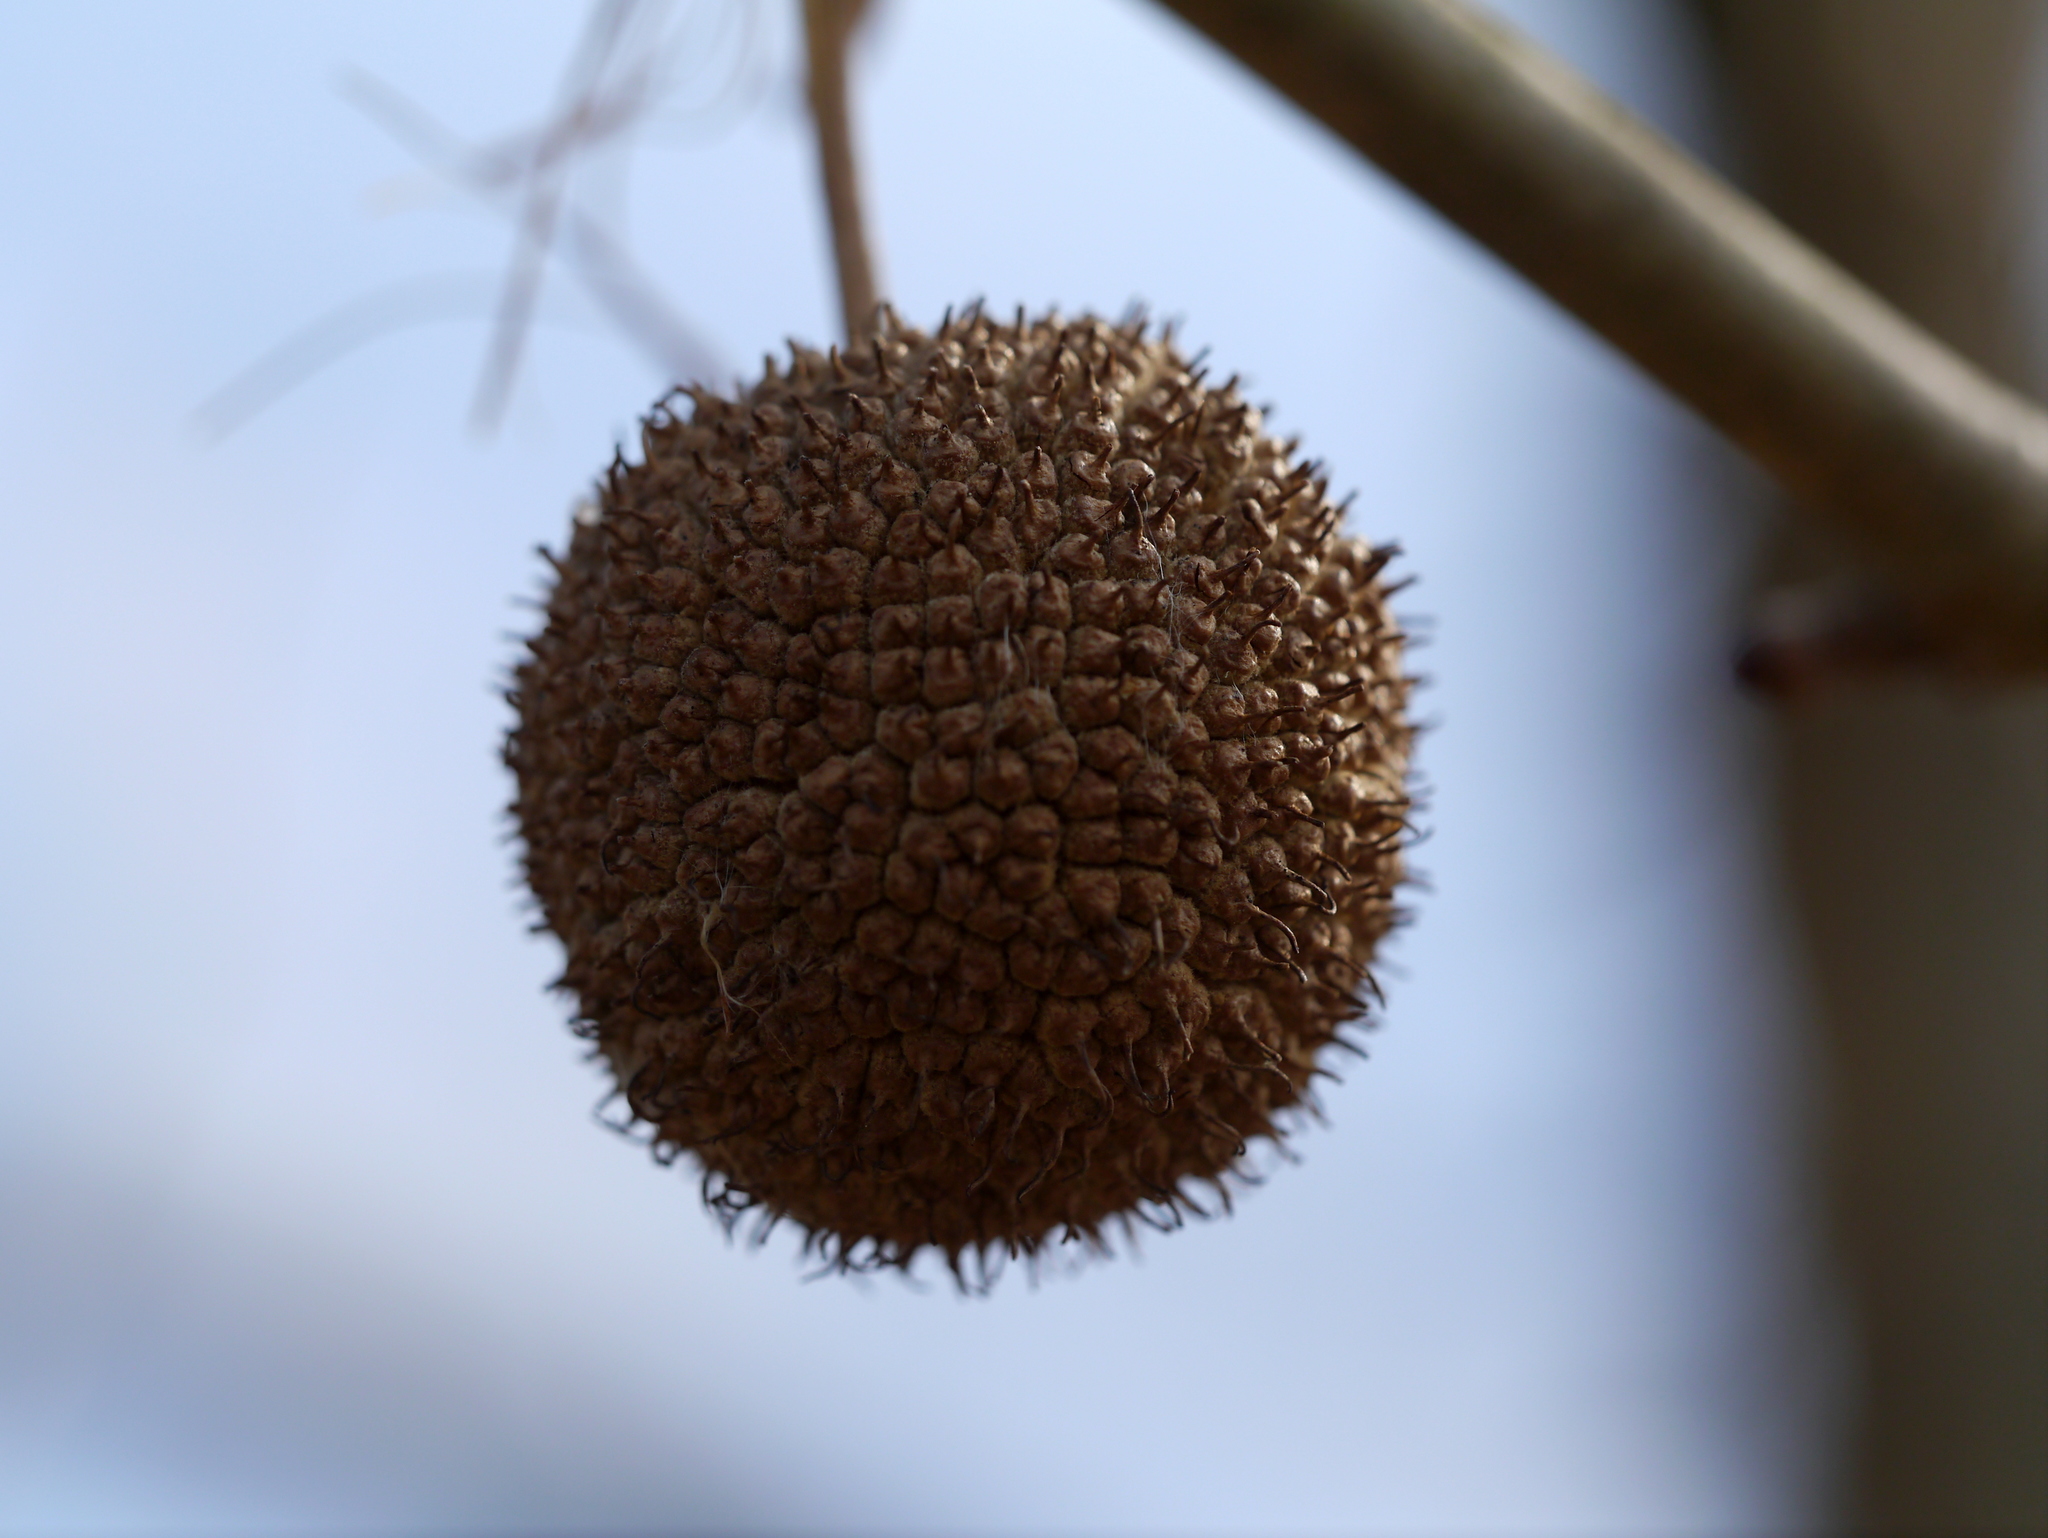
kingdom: Plantae
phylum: Tracheophyta
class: Magnoliopsida
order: Proteales
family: Platanaceae
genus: Platanus
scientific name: Platanus occidentalis
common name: American sycamore
